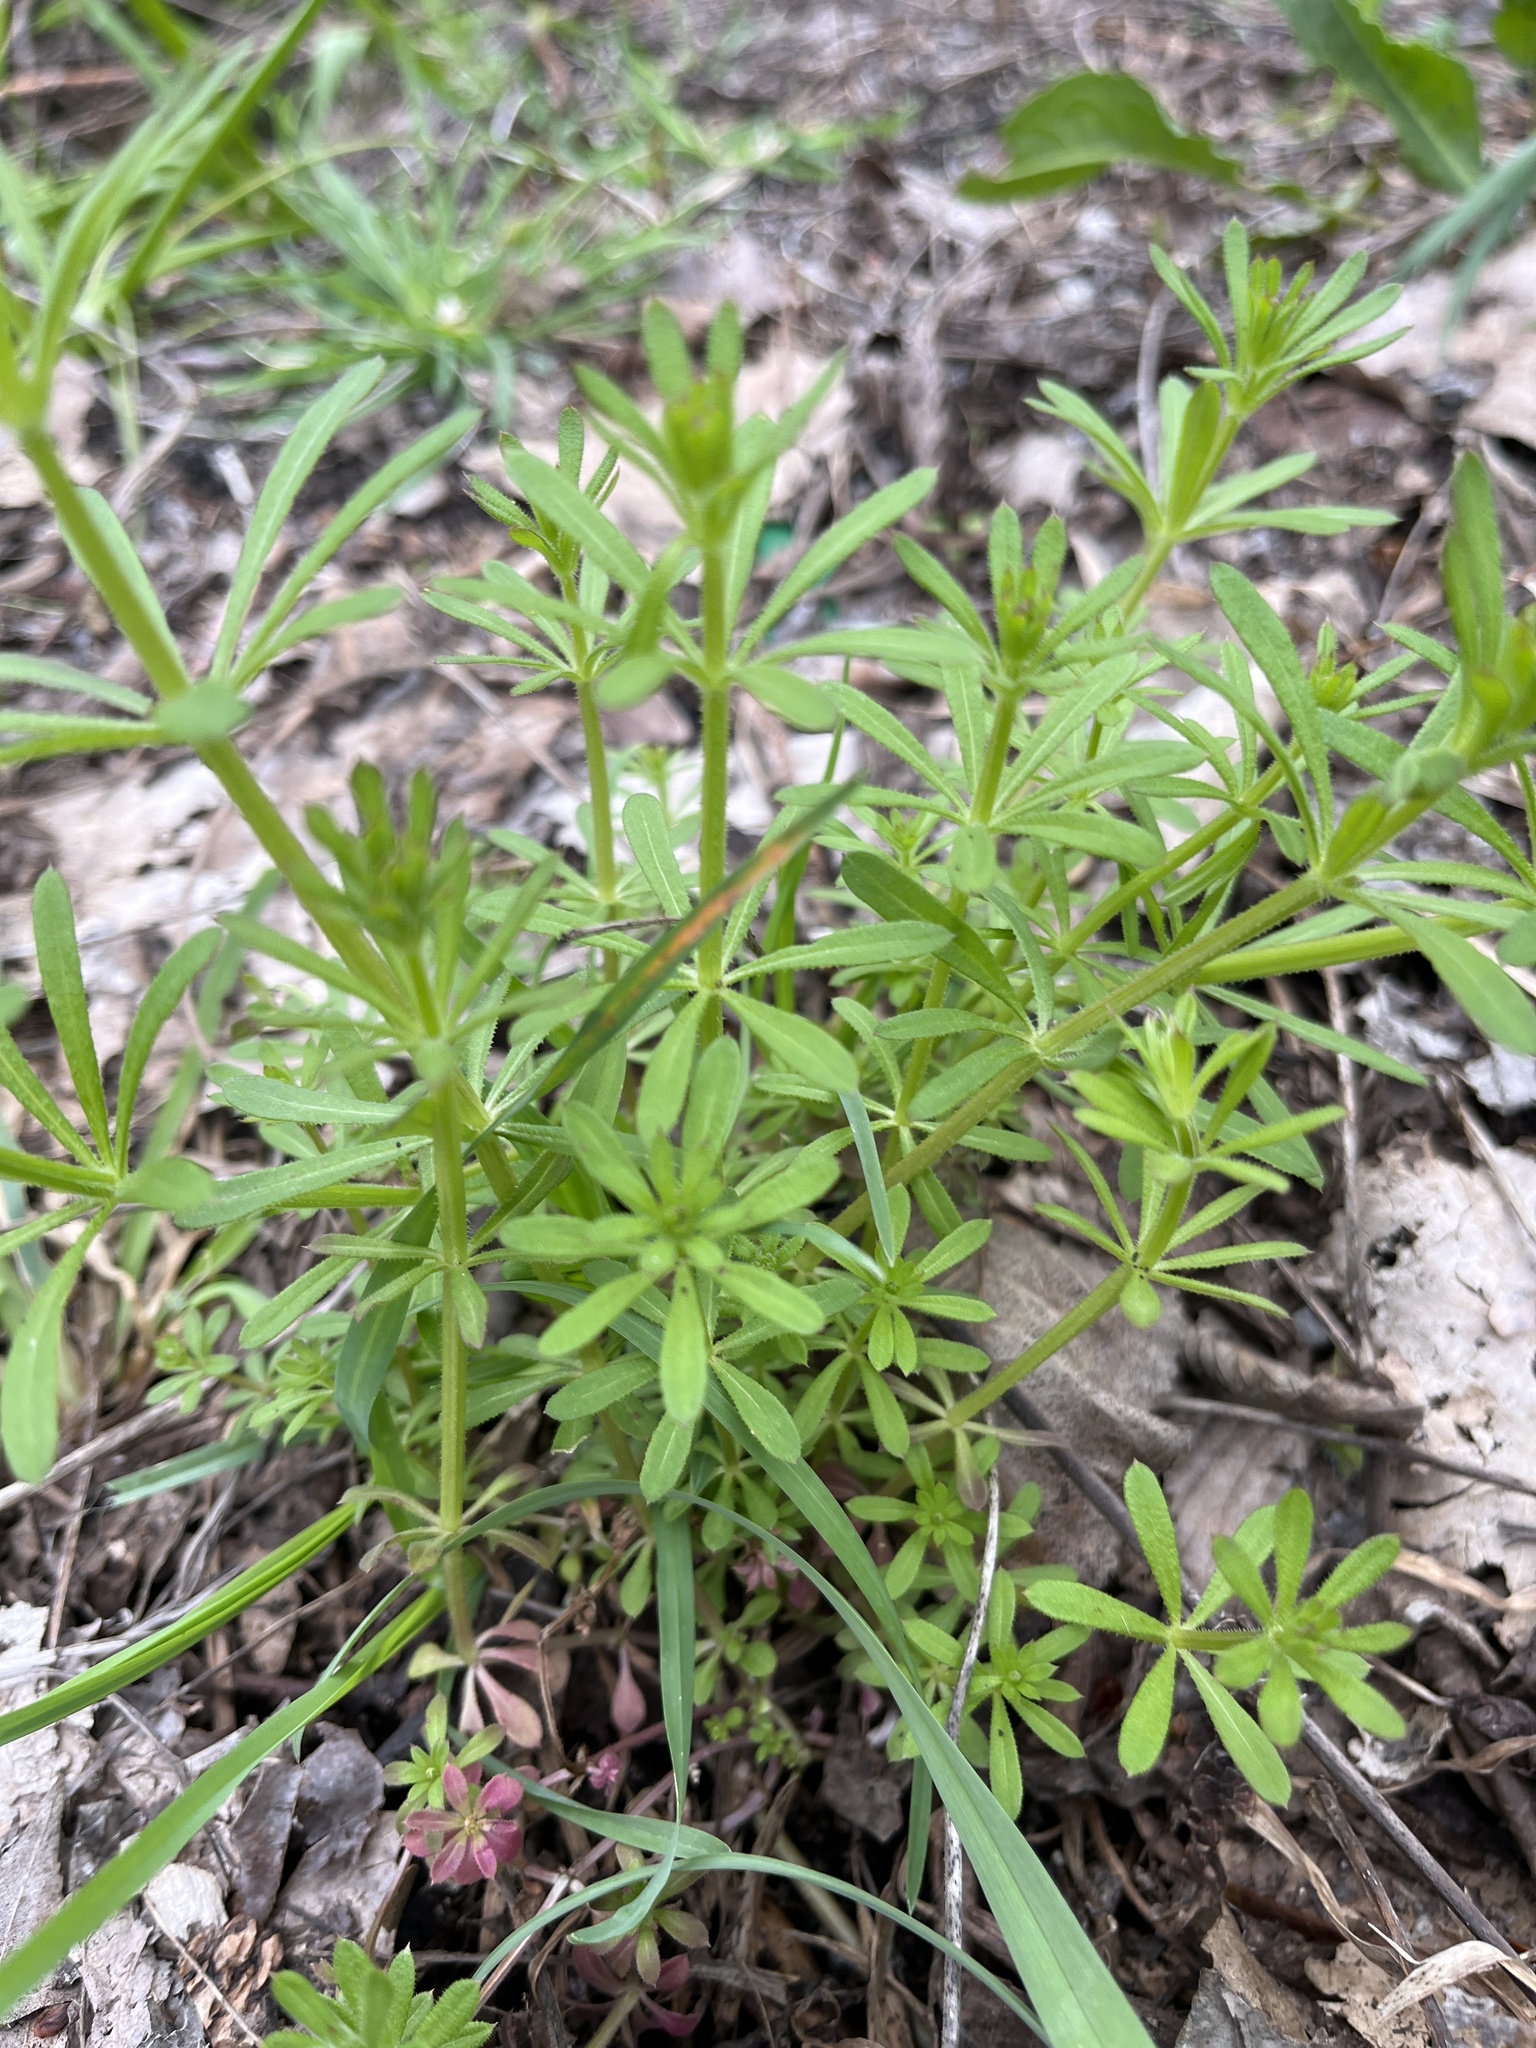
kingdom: Plantae
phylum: Tracheophyta
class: Magnoliopsida
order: Gentianales
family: Rubiaceae
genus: Galium
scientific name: Galium aparine
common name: Cleavers
